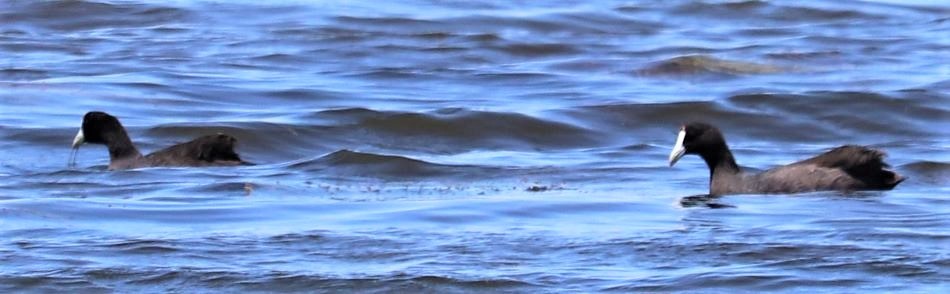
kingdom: Animalia
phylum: Chordata
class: Aves
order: Gruiformes
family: Rallidae
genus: Fulica
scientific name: Fulica cristata
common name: Red-knobbed coot
